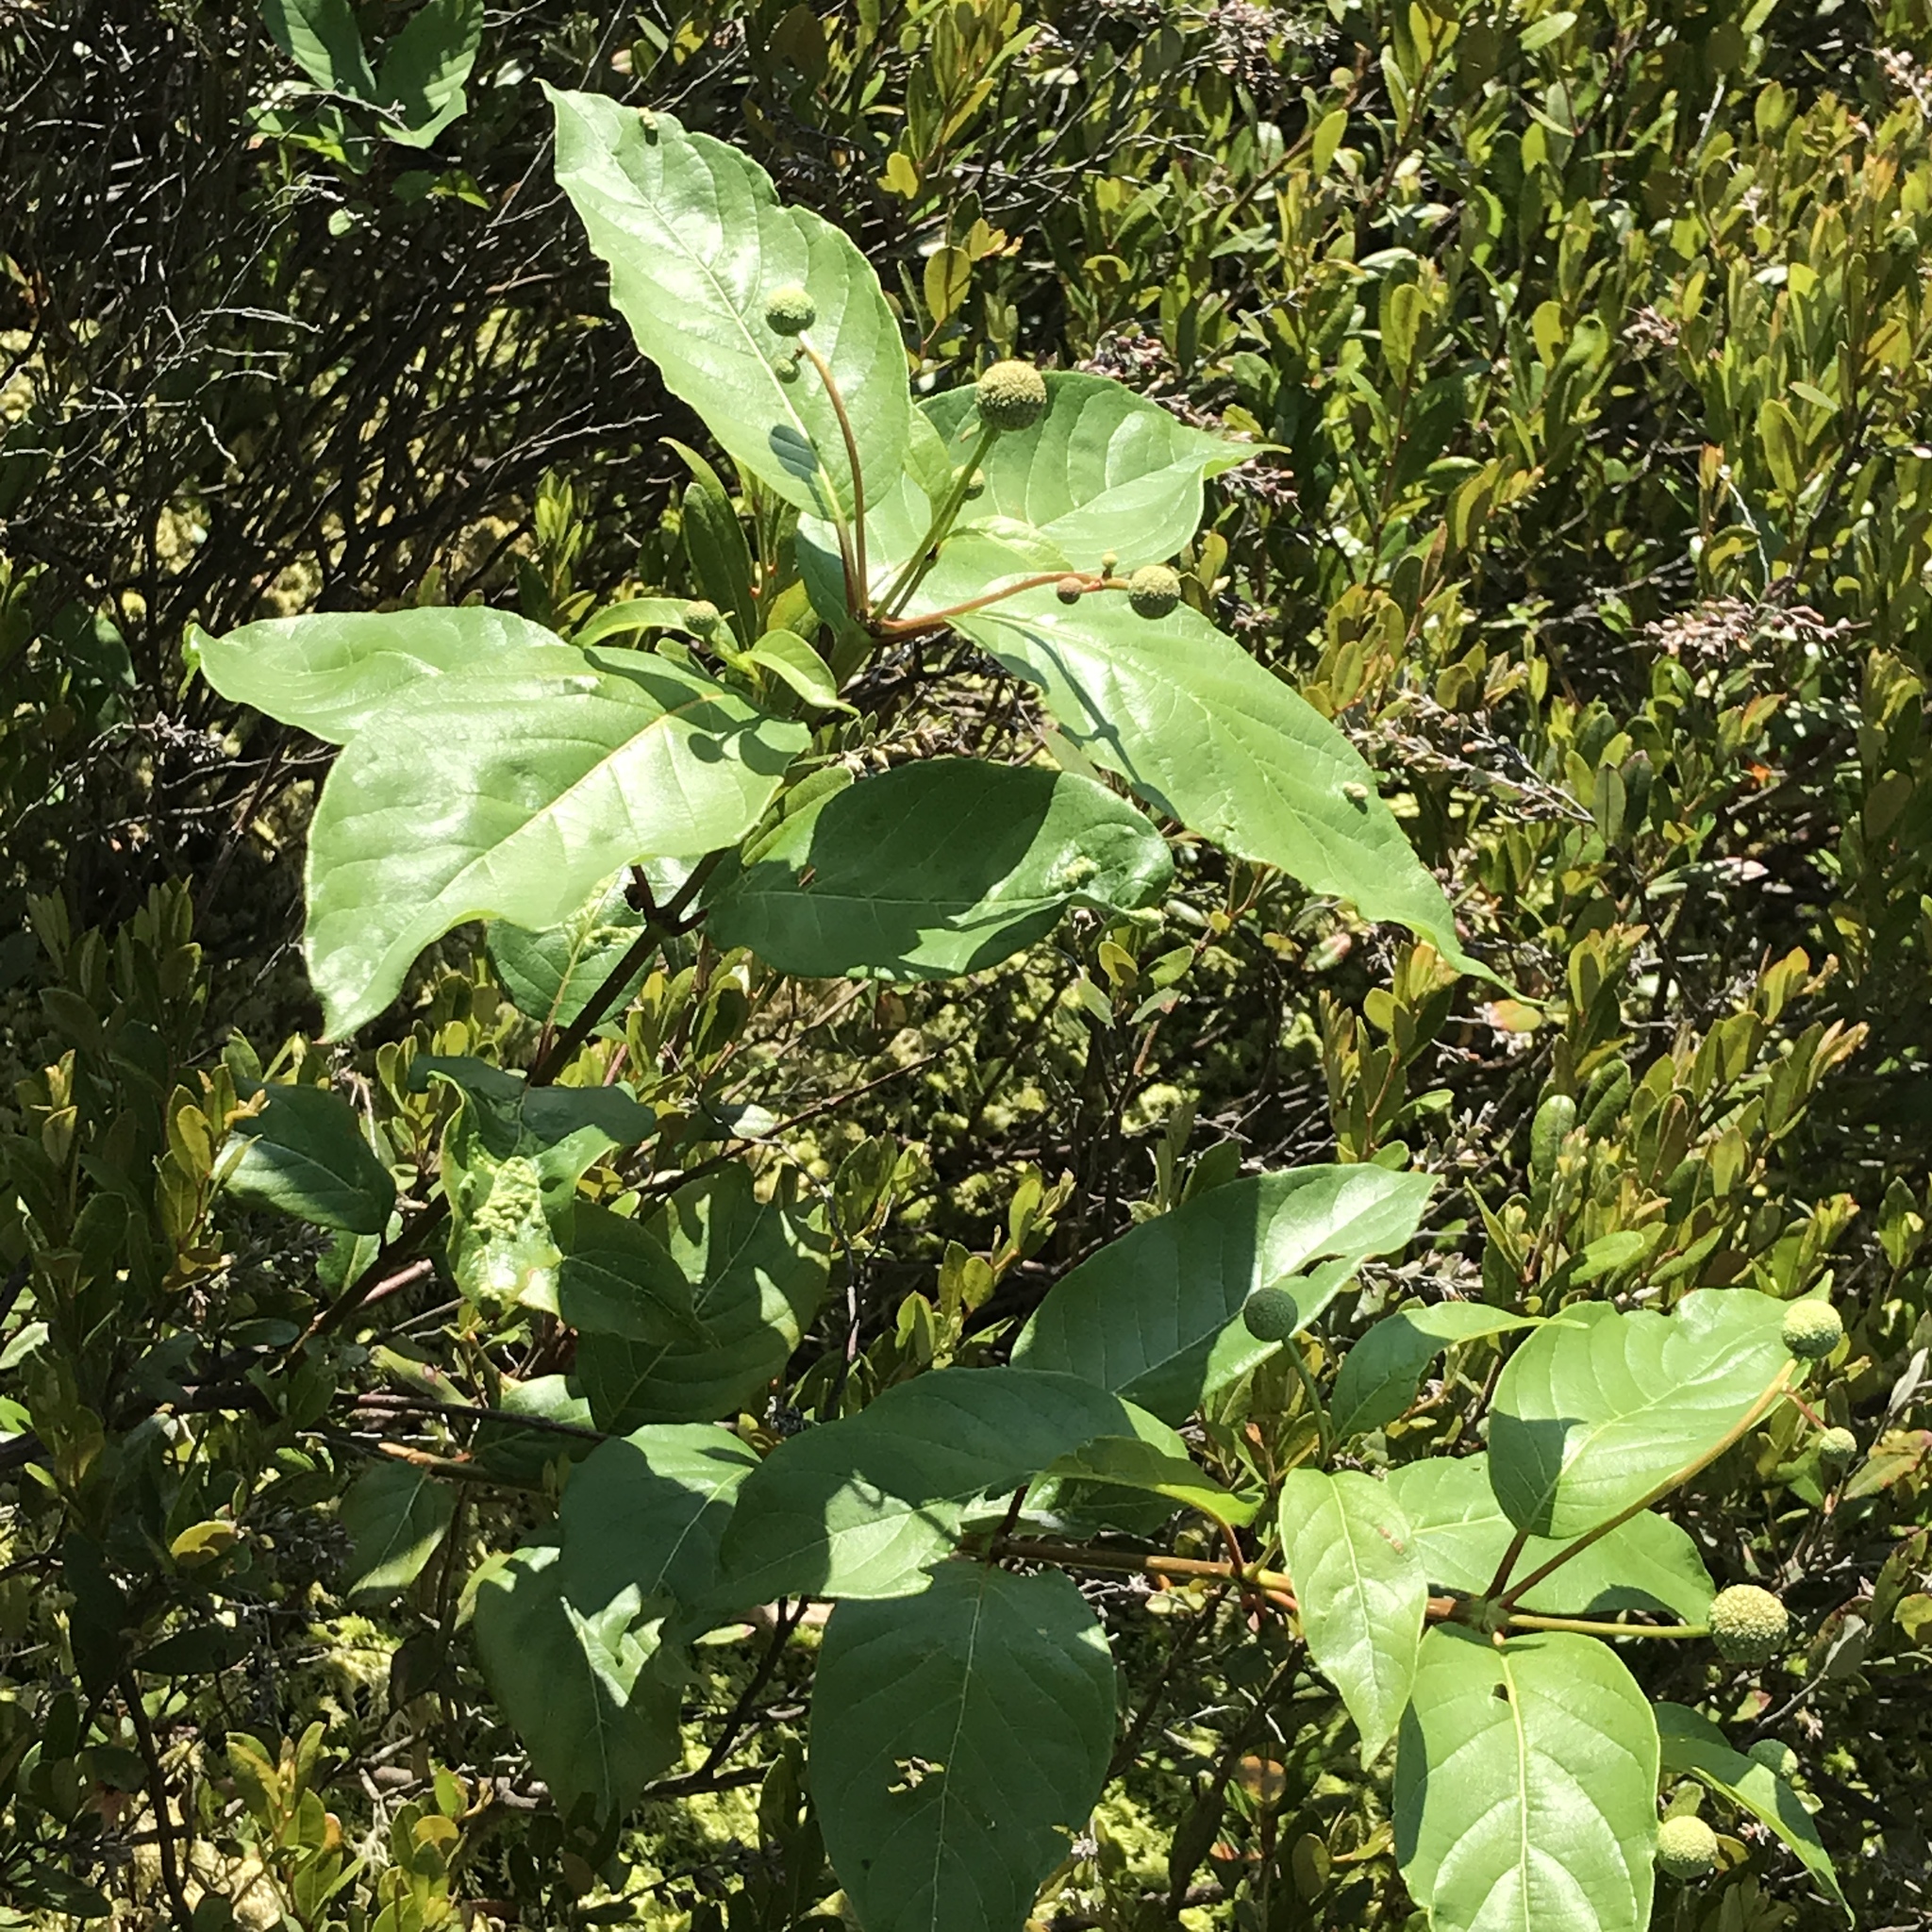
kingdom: Plantae
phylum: Tracheophyta
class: Magnoliopsida
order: Gentianales
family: Rubiaceae
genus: Cephalanthus
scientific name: Cephalanthus occidentalis
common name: Button-willow
